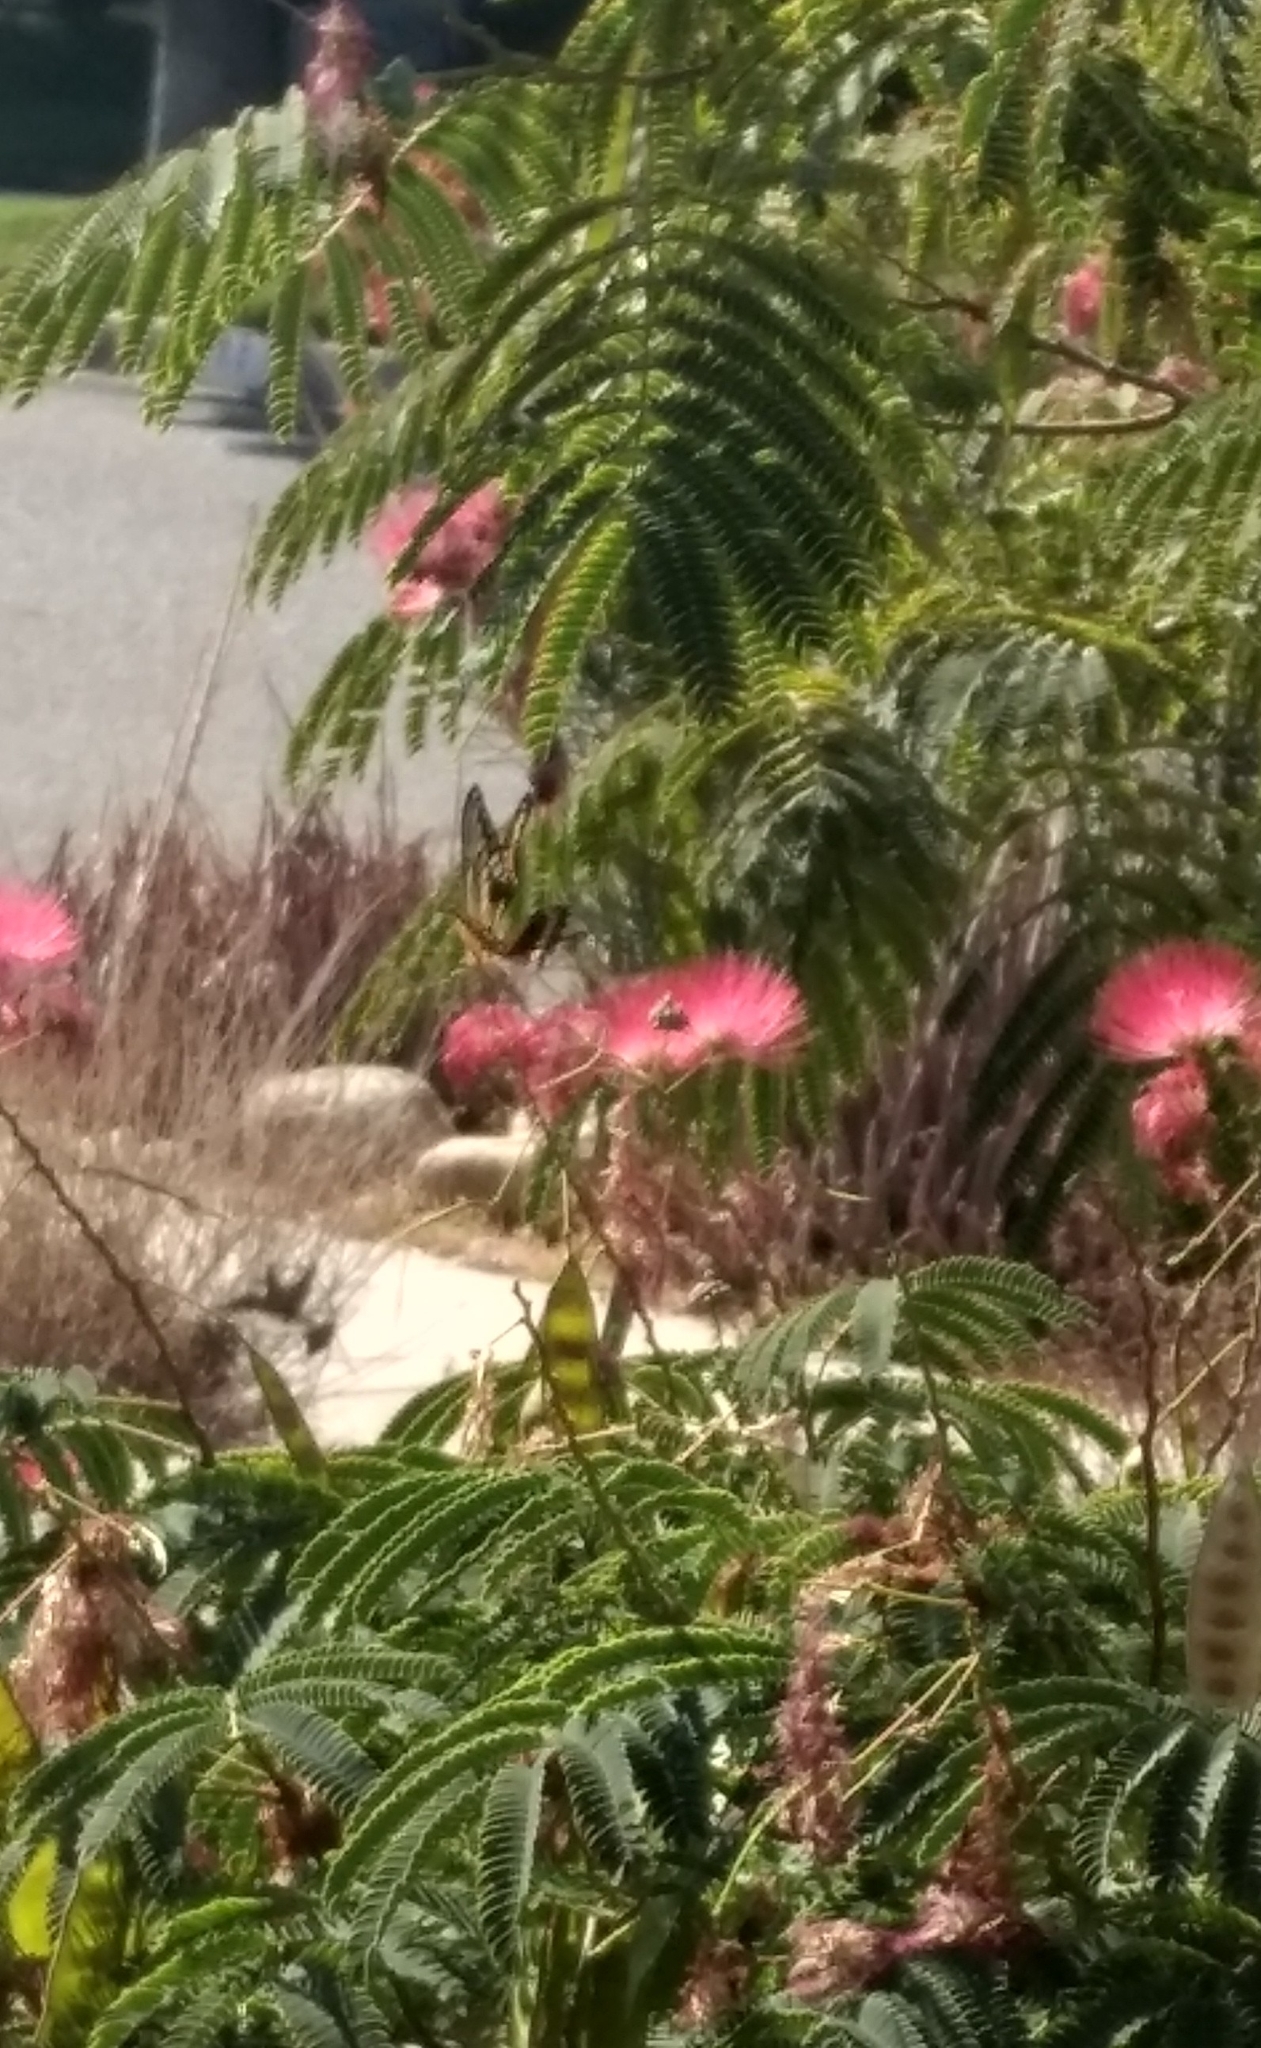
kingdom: Animalia
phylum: Arthropoda
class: Insecta
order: Lepidoptera
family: Papilionidae
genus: Papilio
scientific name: Papilio rumiko
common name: Western giant swallowtail
